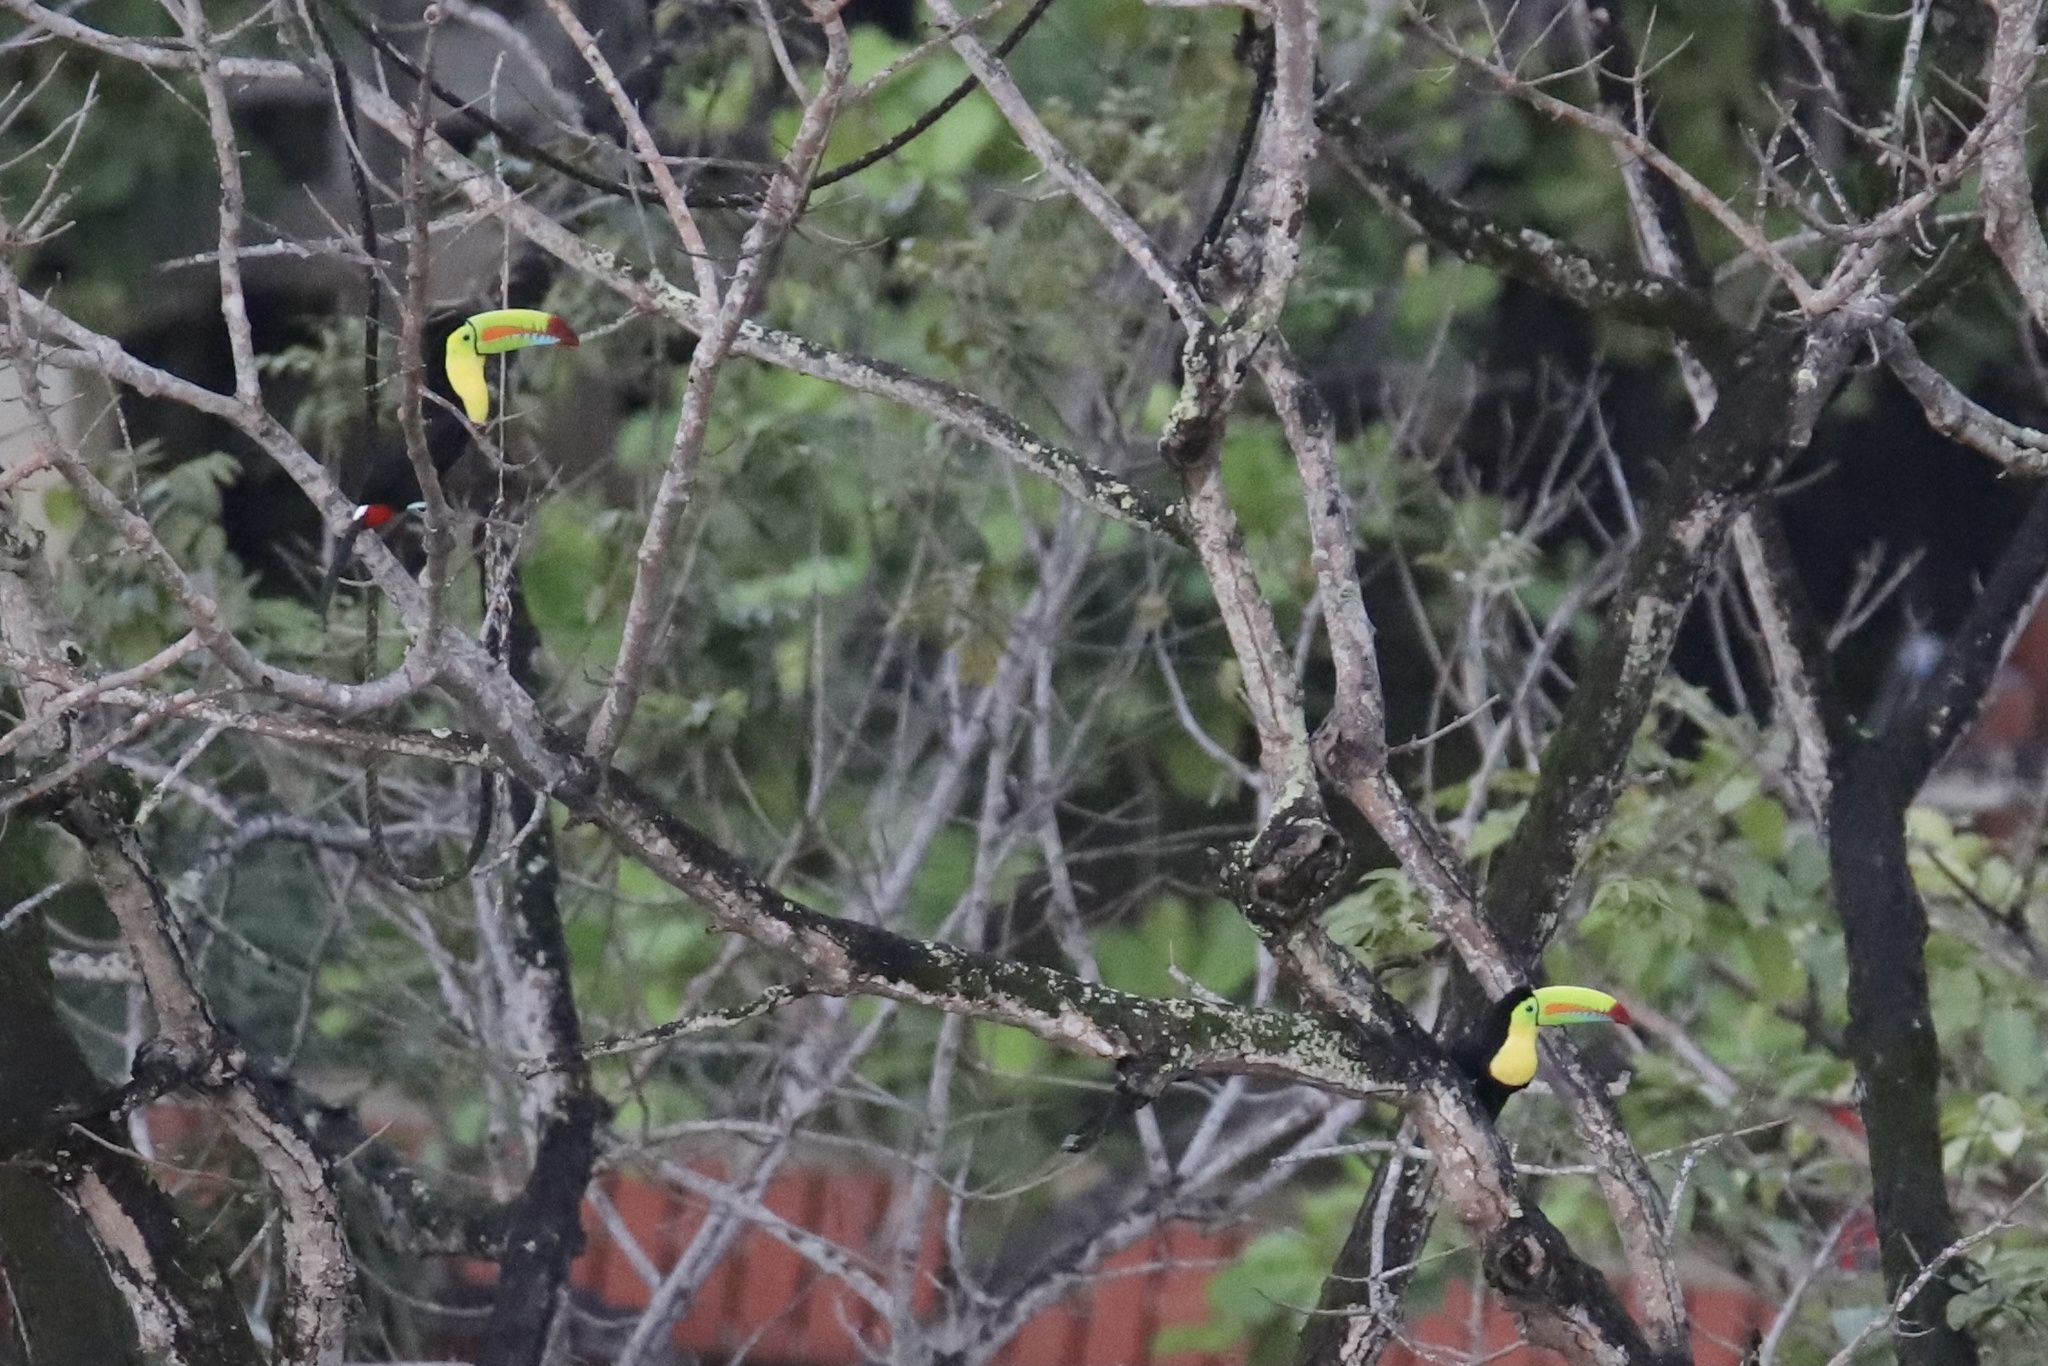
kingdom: Animalia
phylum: Chordata
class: Aves
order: Piciformes
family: Ramphastidae
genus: Ramphastos
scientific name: Ramphastos sulfuratus
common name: Keel-billed toucan
